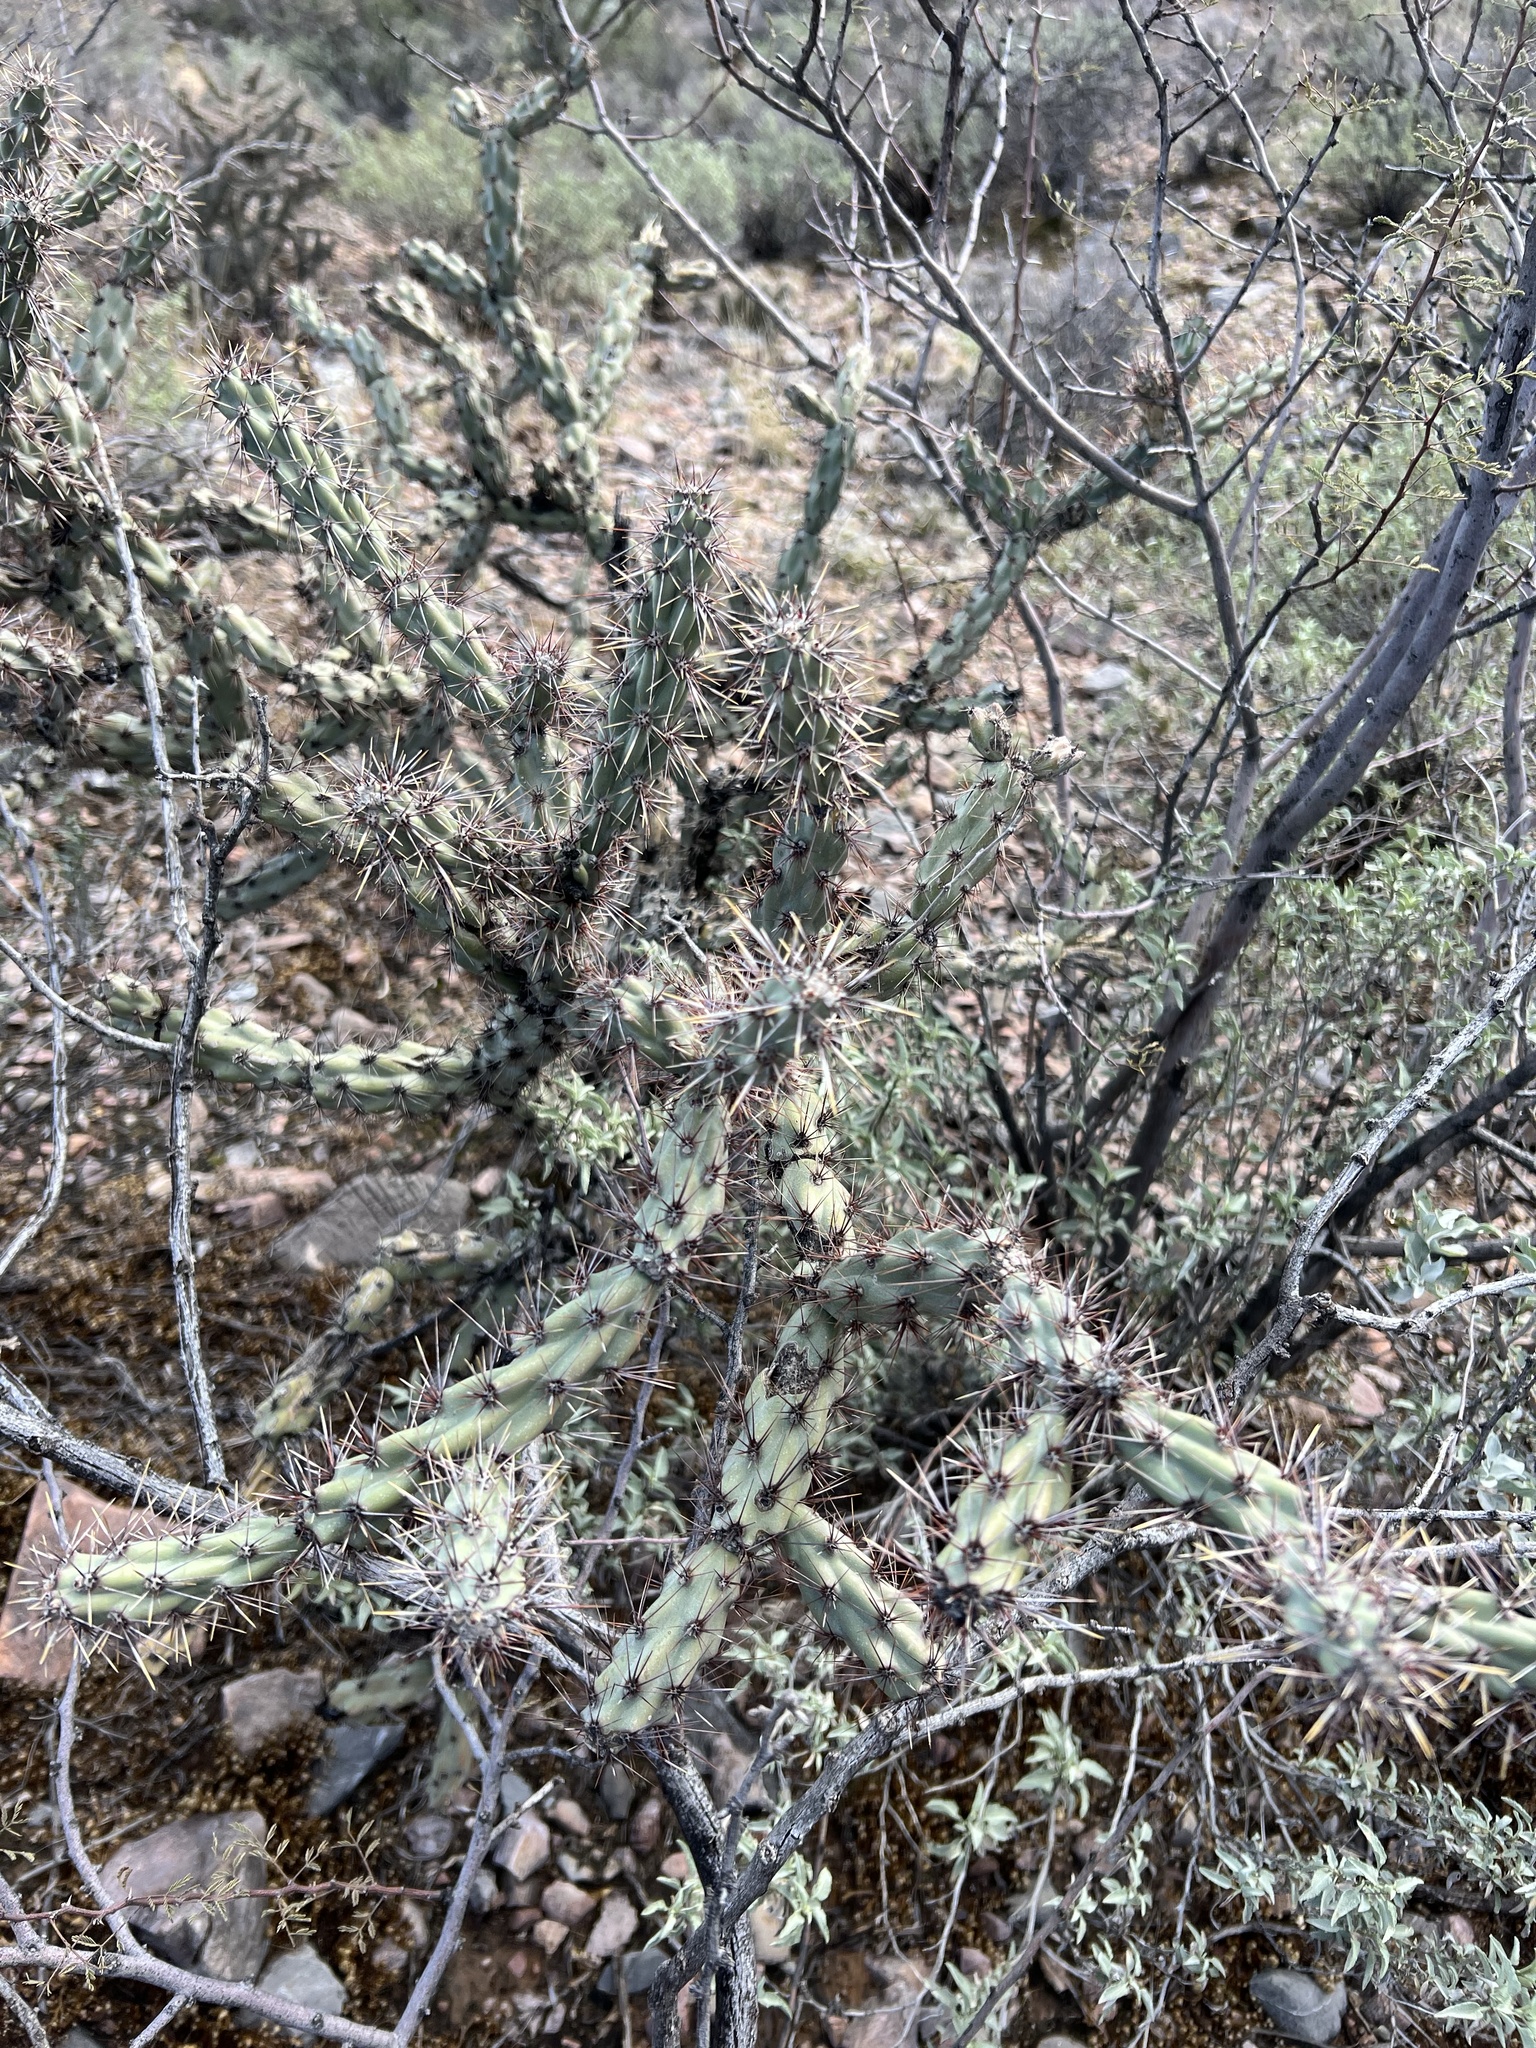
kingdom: Plantae
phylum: Tracheophyta
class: Magnoliopsida
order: Caryophyllales
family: Cactaceae
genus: Cylindropuntia
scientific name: Cylindropuntia acanthocarpa
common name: Buckhorn cholla
